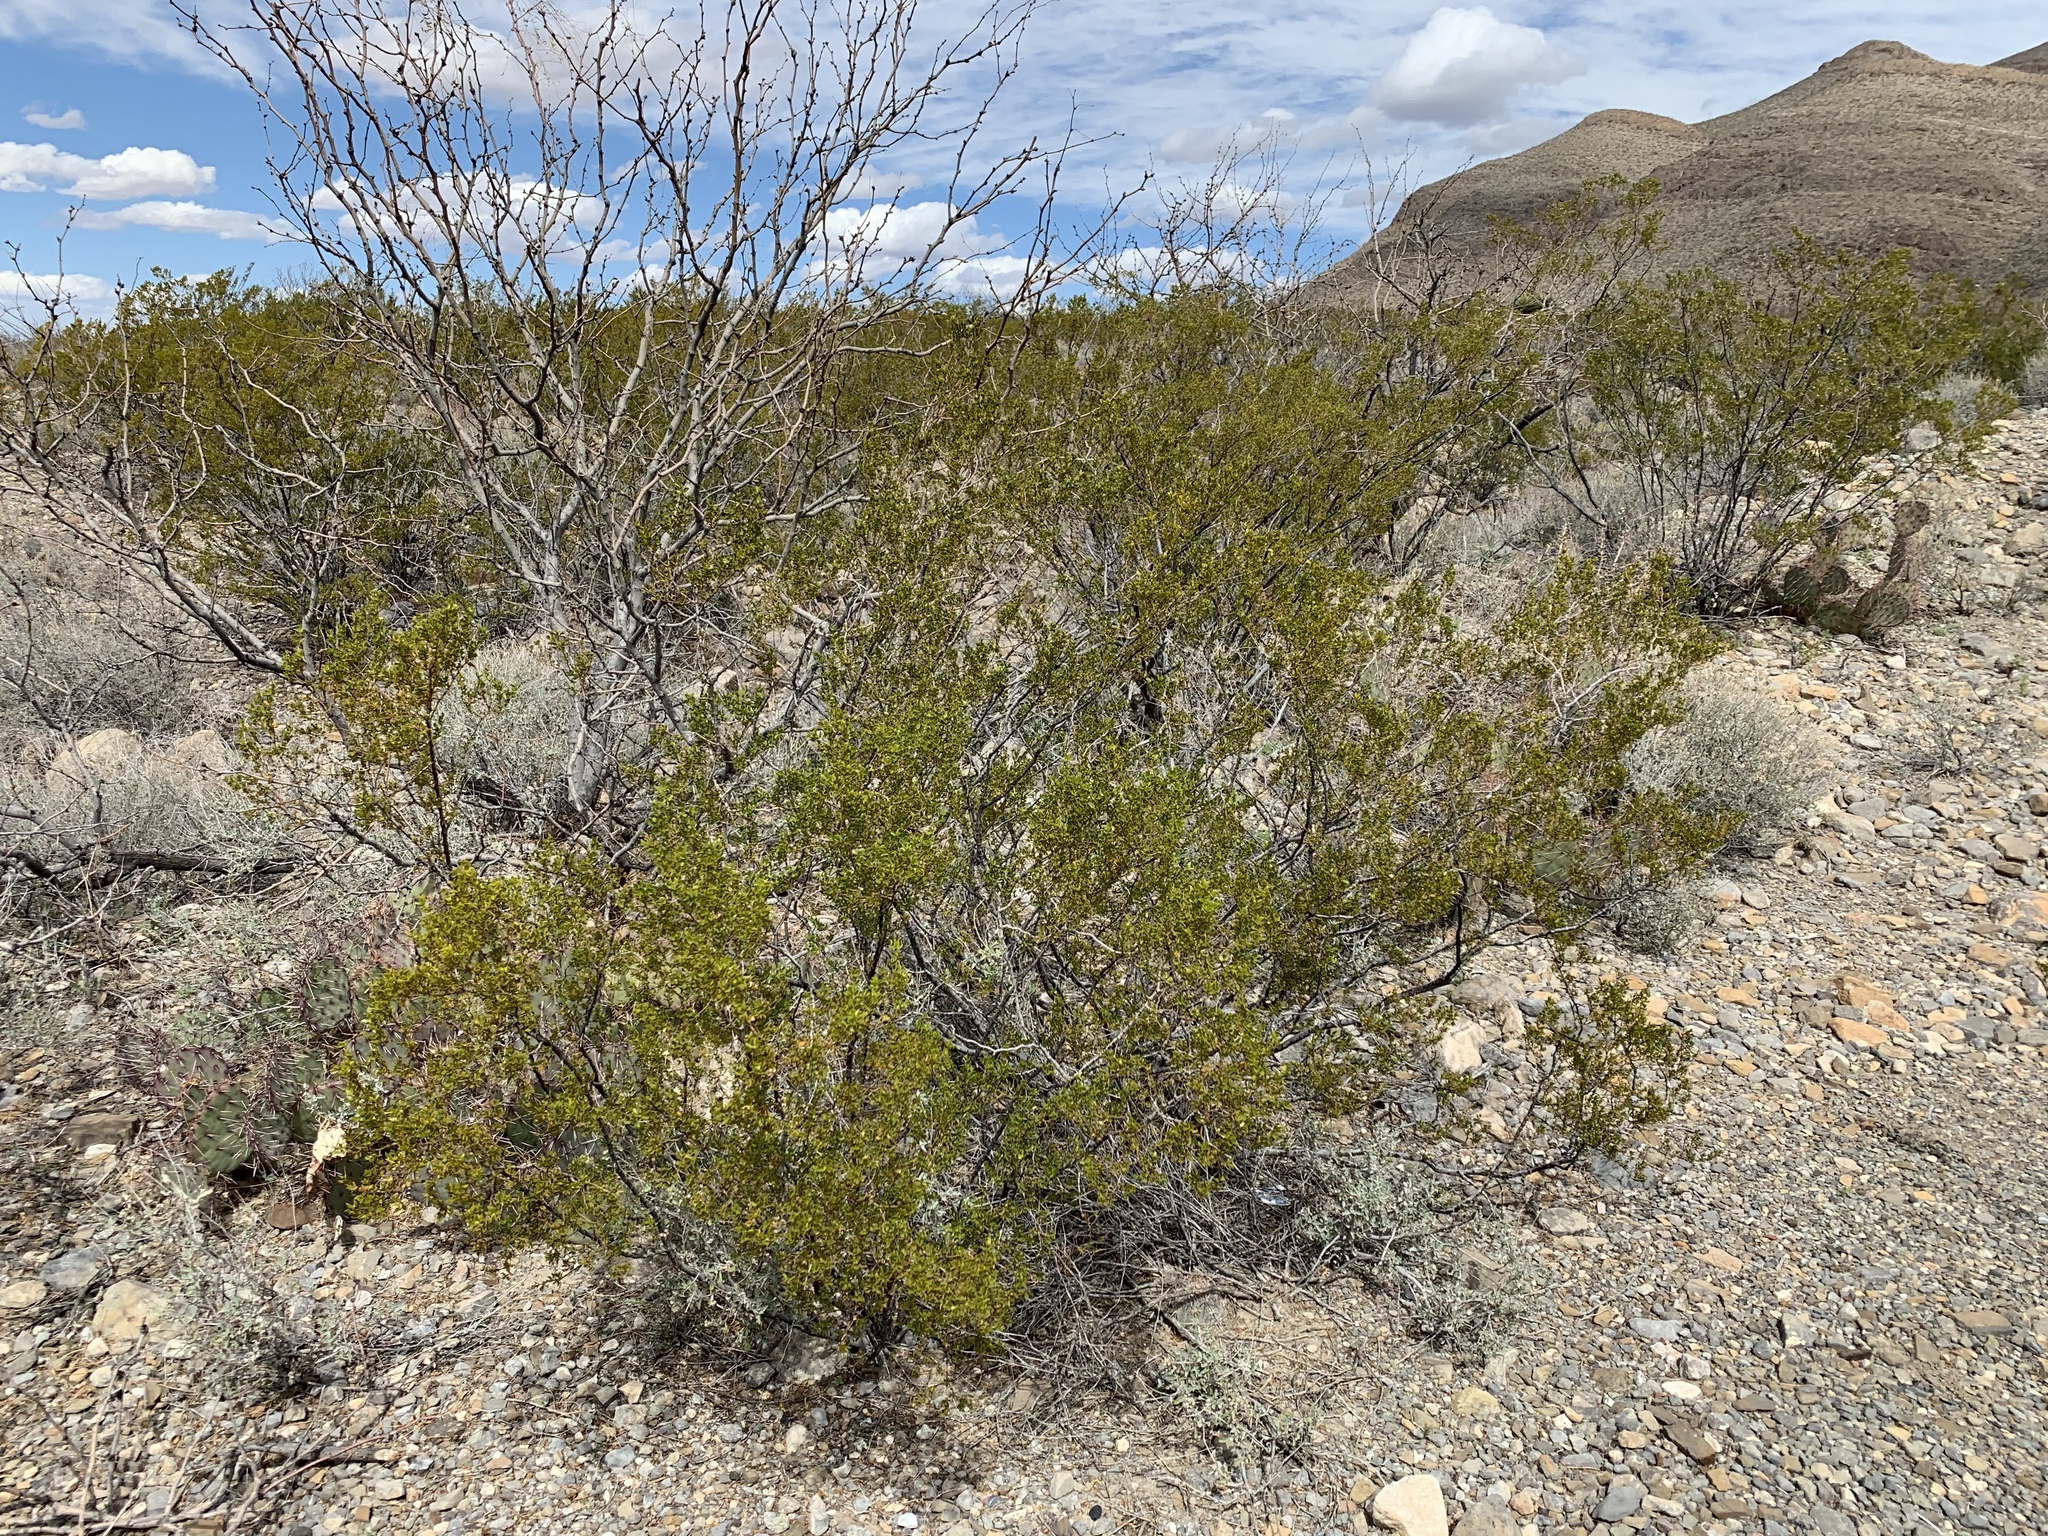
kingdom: Plantae
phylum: Tracheophyta
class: Magnoliopsida
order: Zygophyllales
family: Zygophyllaceae
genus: Larrea
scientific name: Larrea tridentata
